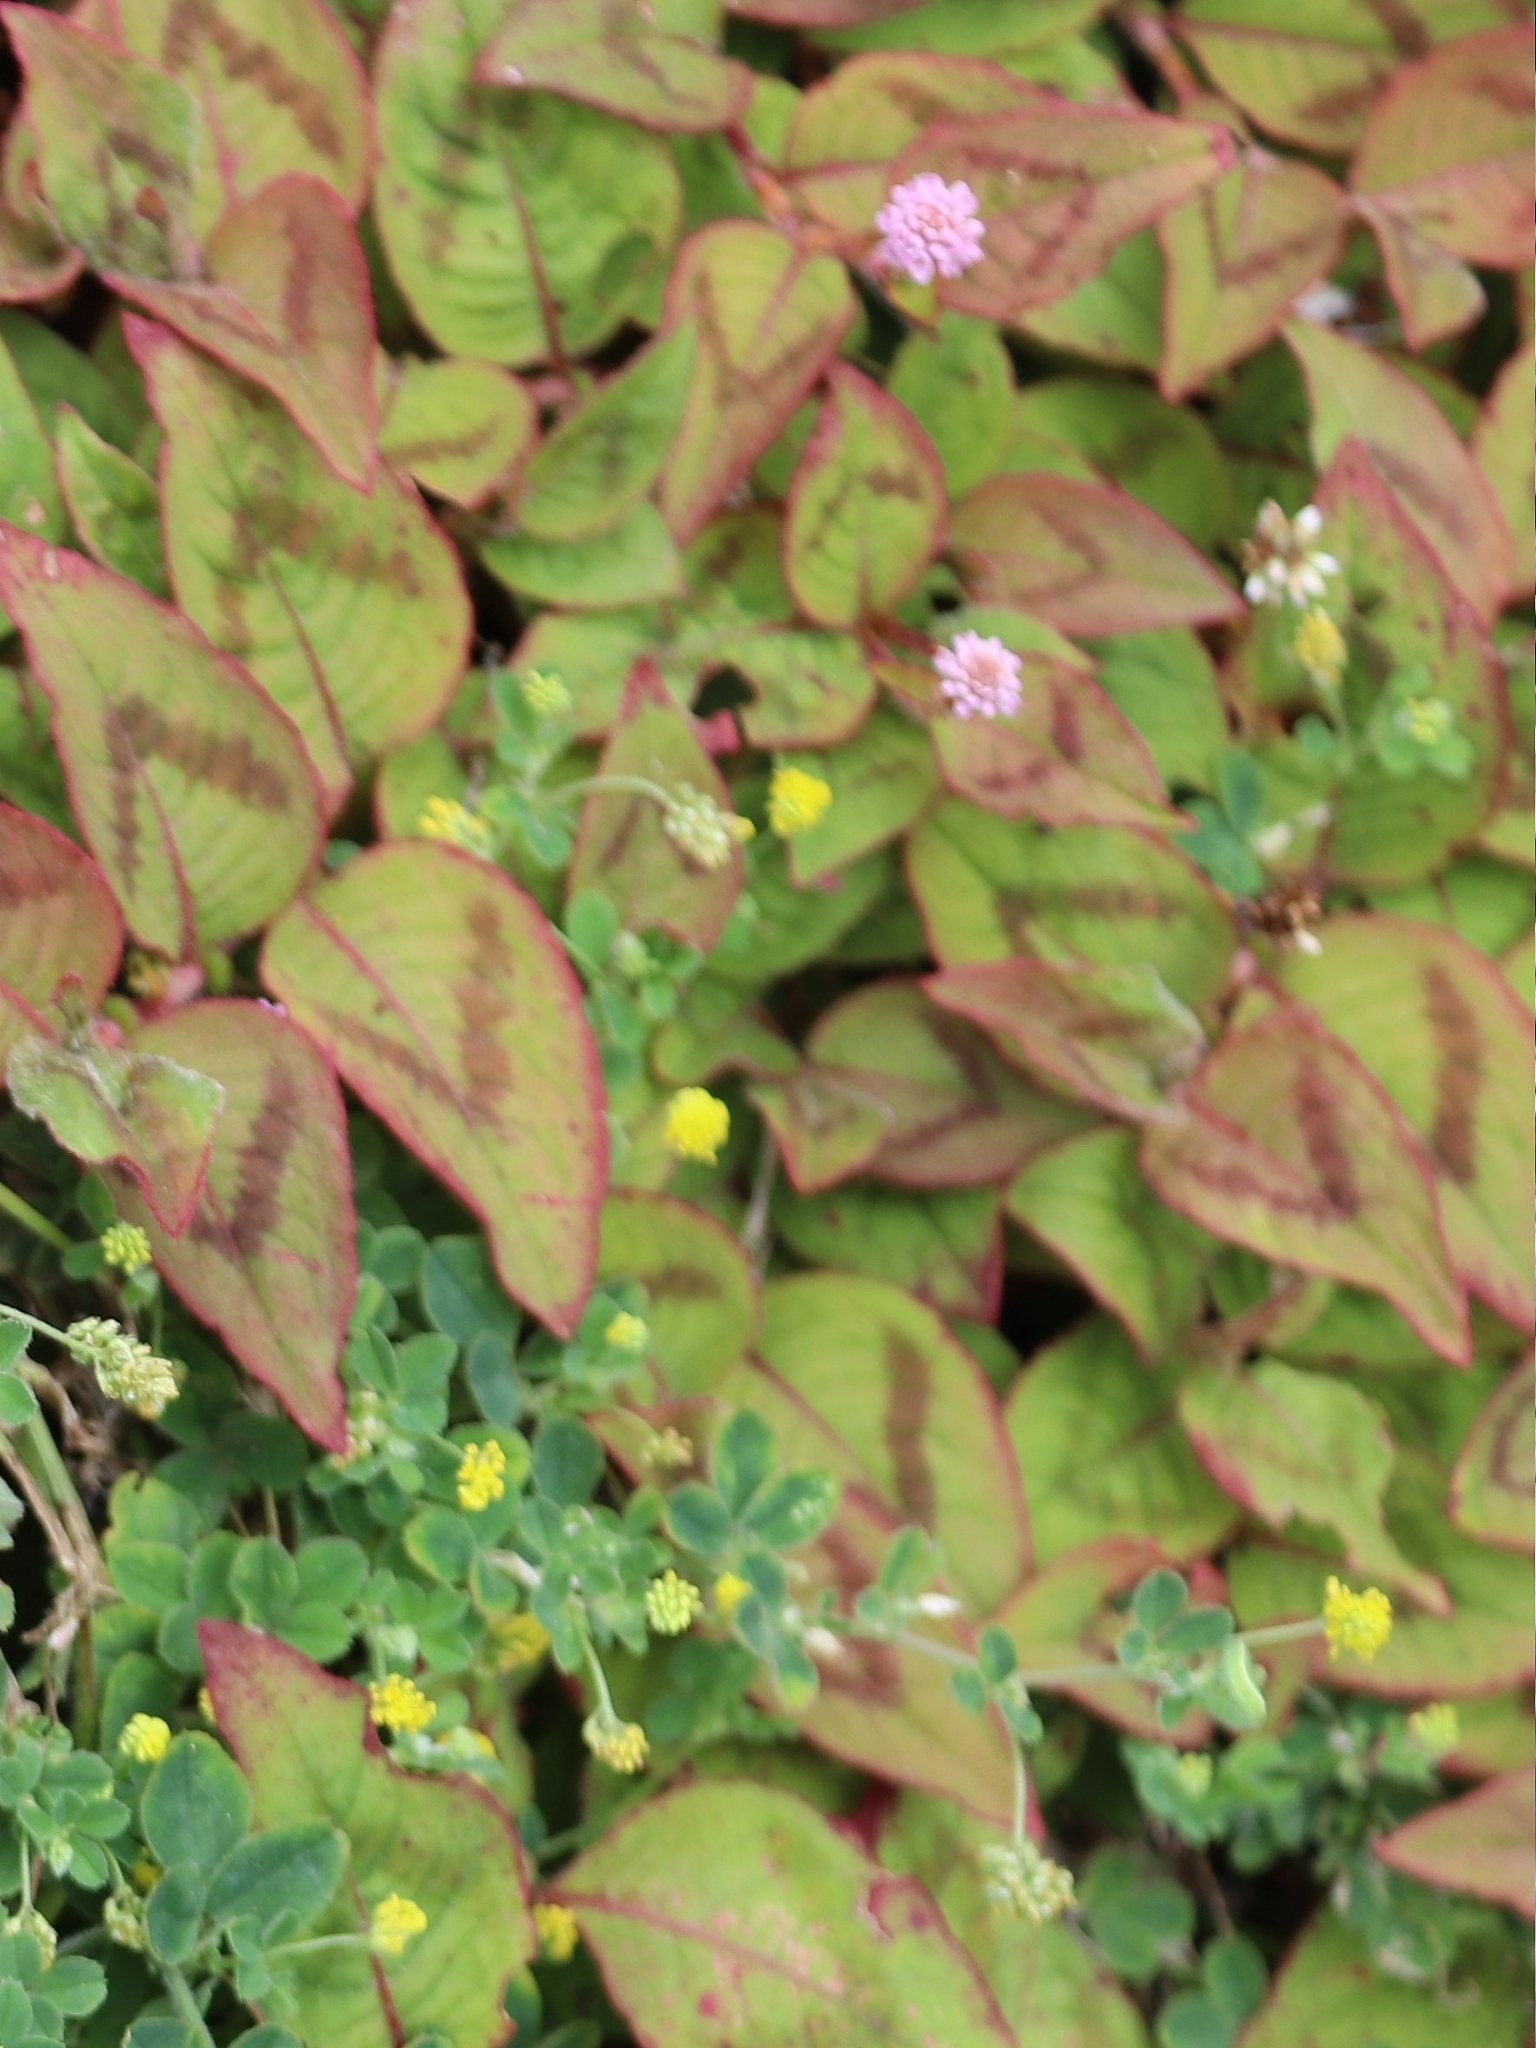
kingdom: Plantae
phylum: Tracheophyta
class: Magnoliopsida
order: Caryophyllales
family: Polygonaceae
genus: Persicaria
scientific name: Persicaria capitata
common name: Pinkhead smartweed
